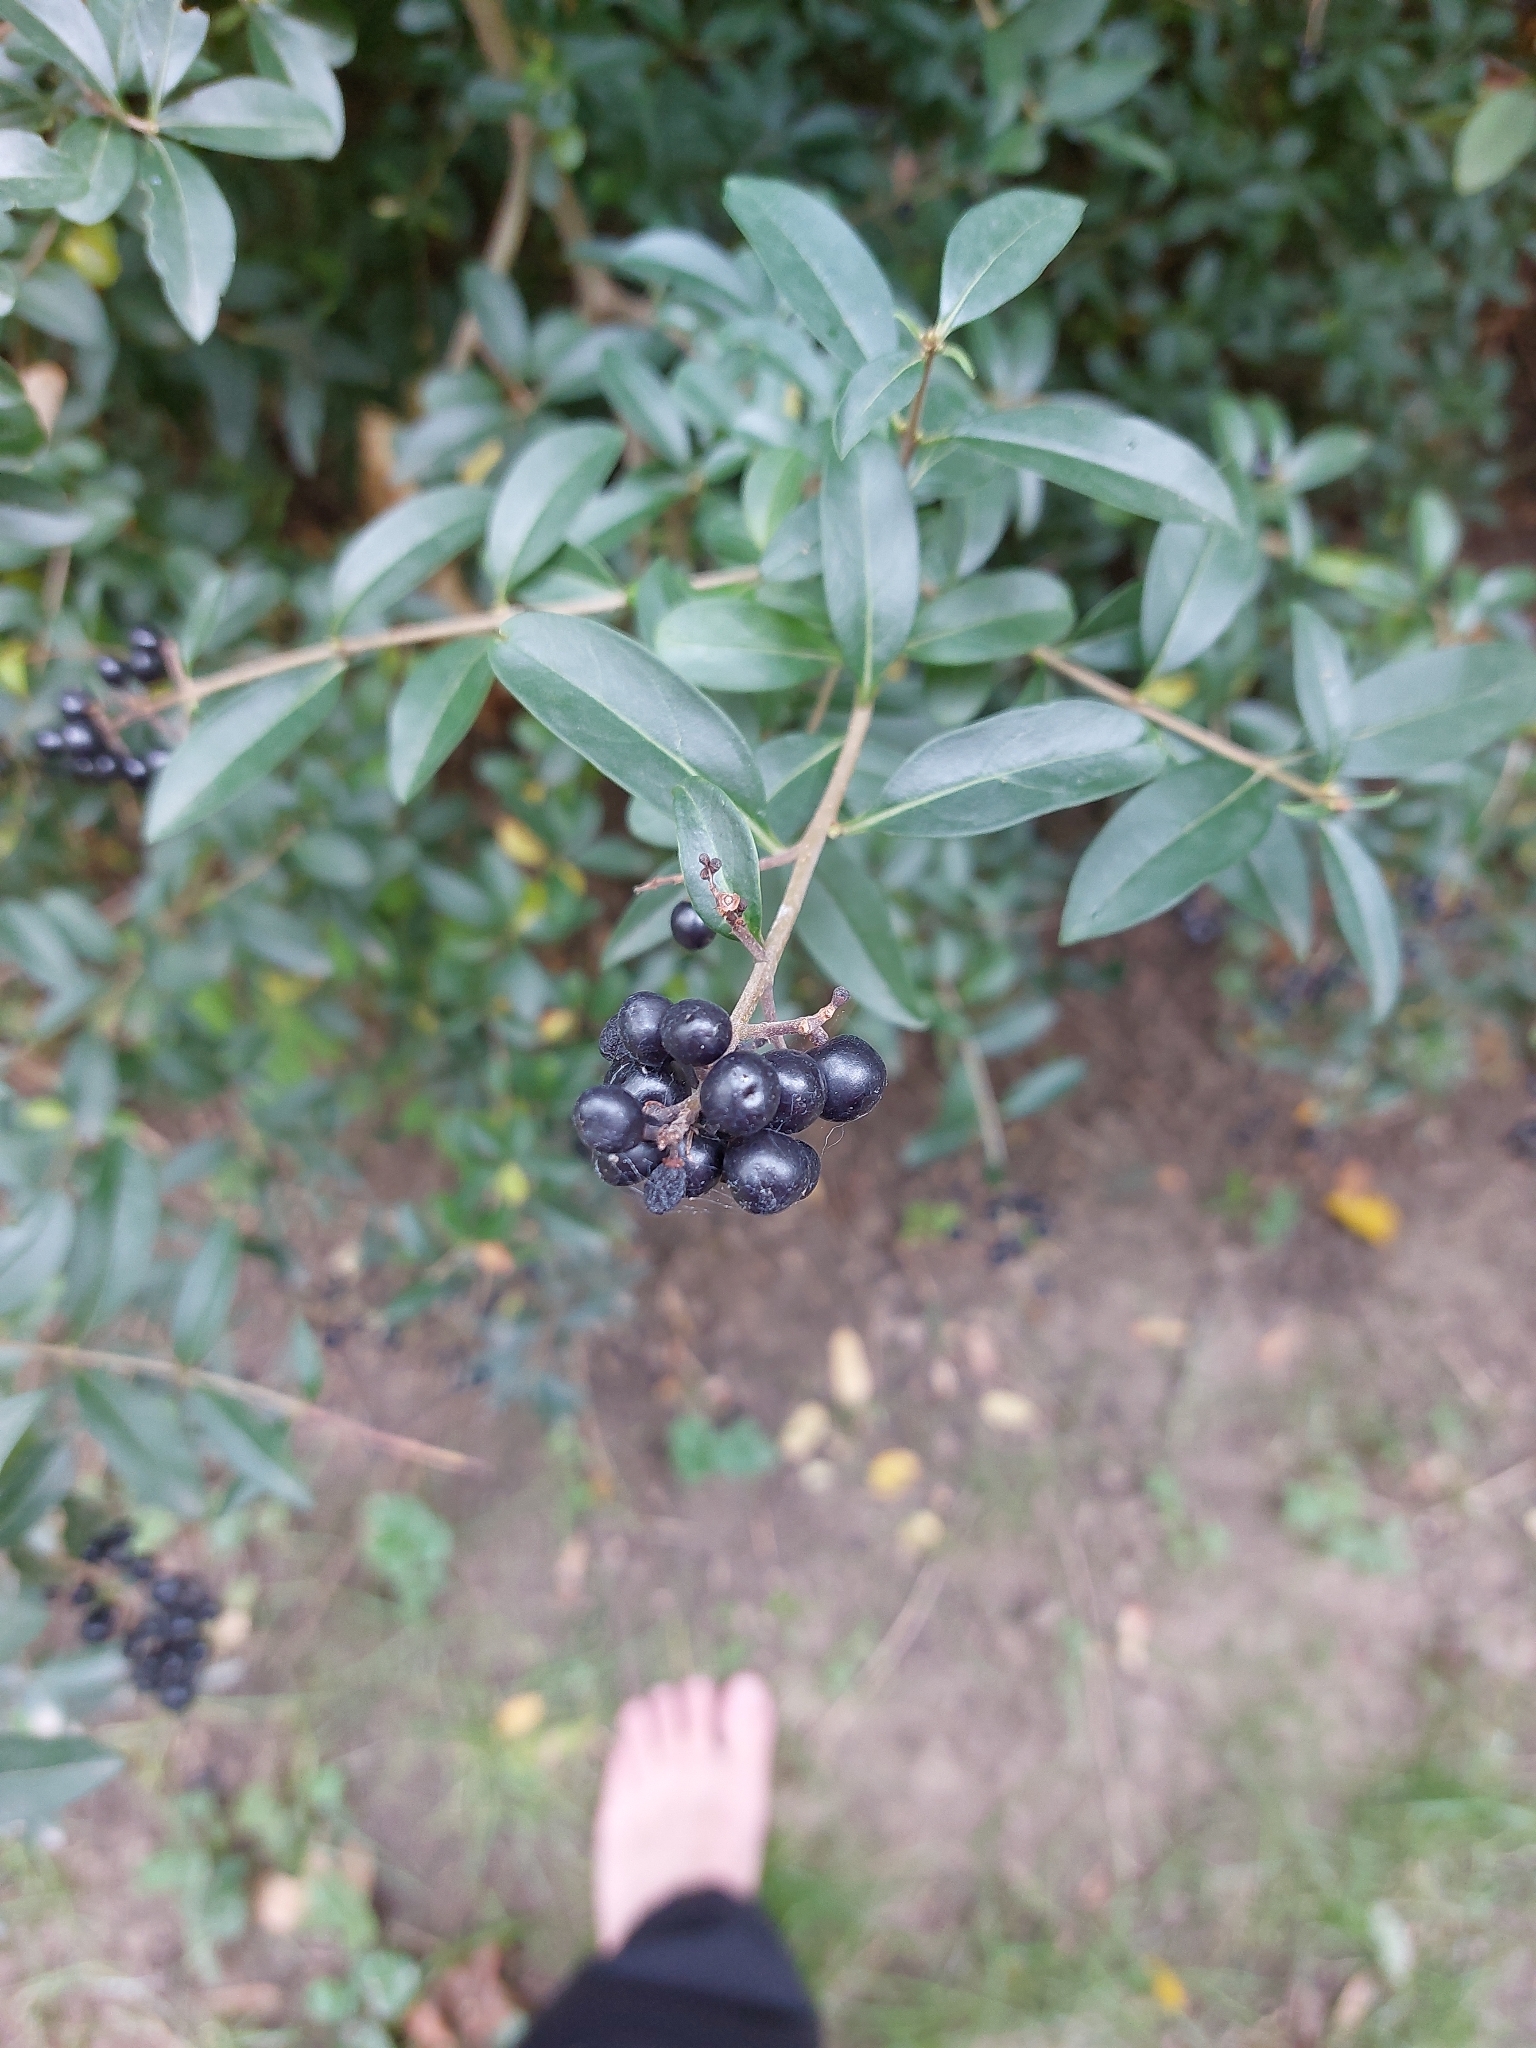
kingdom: Plantae
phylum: Tracheophyta
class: Magnoliopsida
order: Lamiales
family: Oleaceae
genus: Ligustrum
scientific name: Ligustrum vulgare
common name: Wild privet
